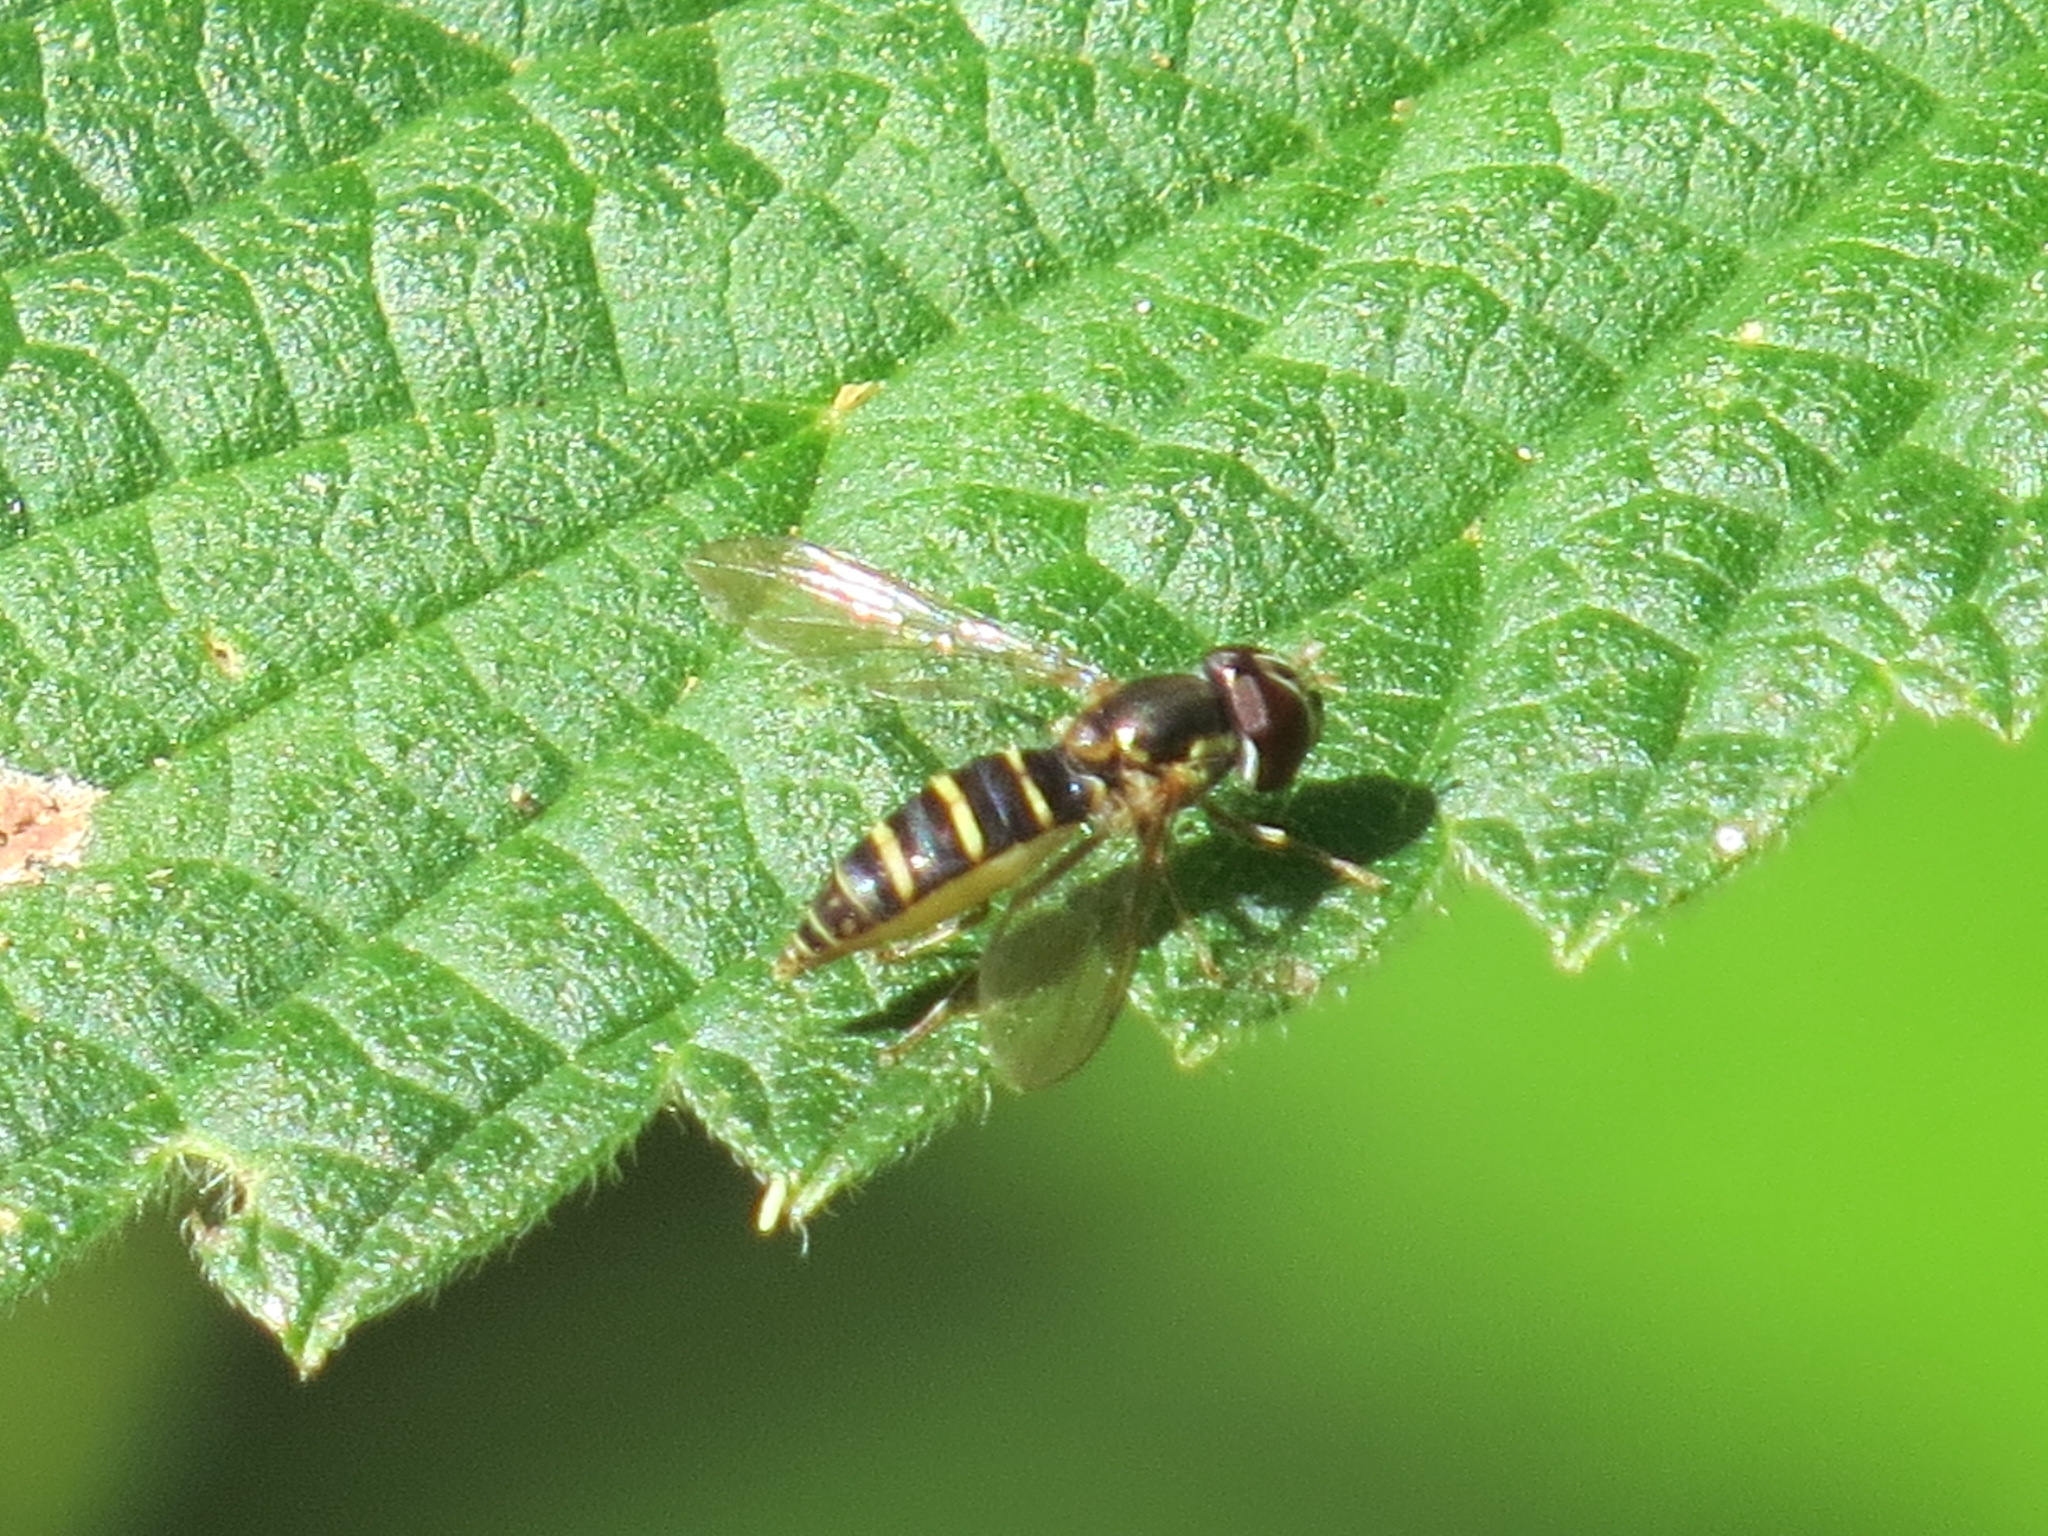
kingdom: Animalia
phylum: Arthropoda
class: Insecta
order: Diptera
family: Syrphidae
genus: Fazia
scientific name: Fazia micrura
